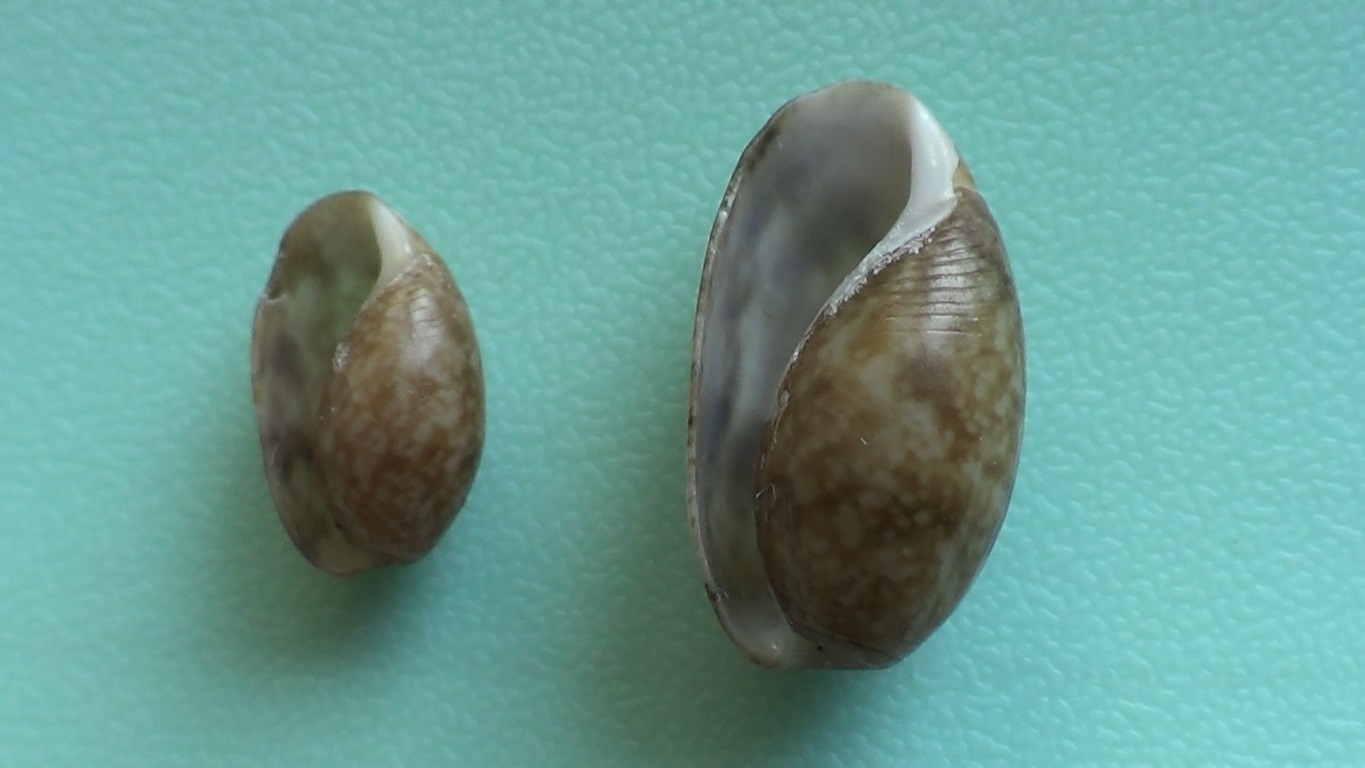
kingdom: Animalia
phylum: Mollusca
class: Gastropoda
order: Cephalaspidea
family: Bullidae
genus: Bulla
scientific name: Bulla striata
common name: Common atlantic bubble
